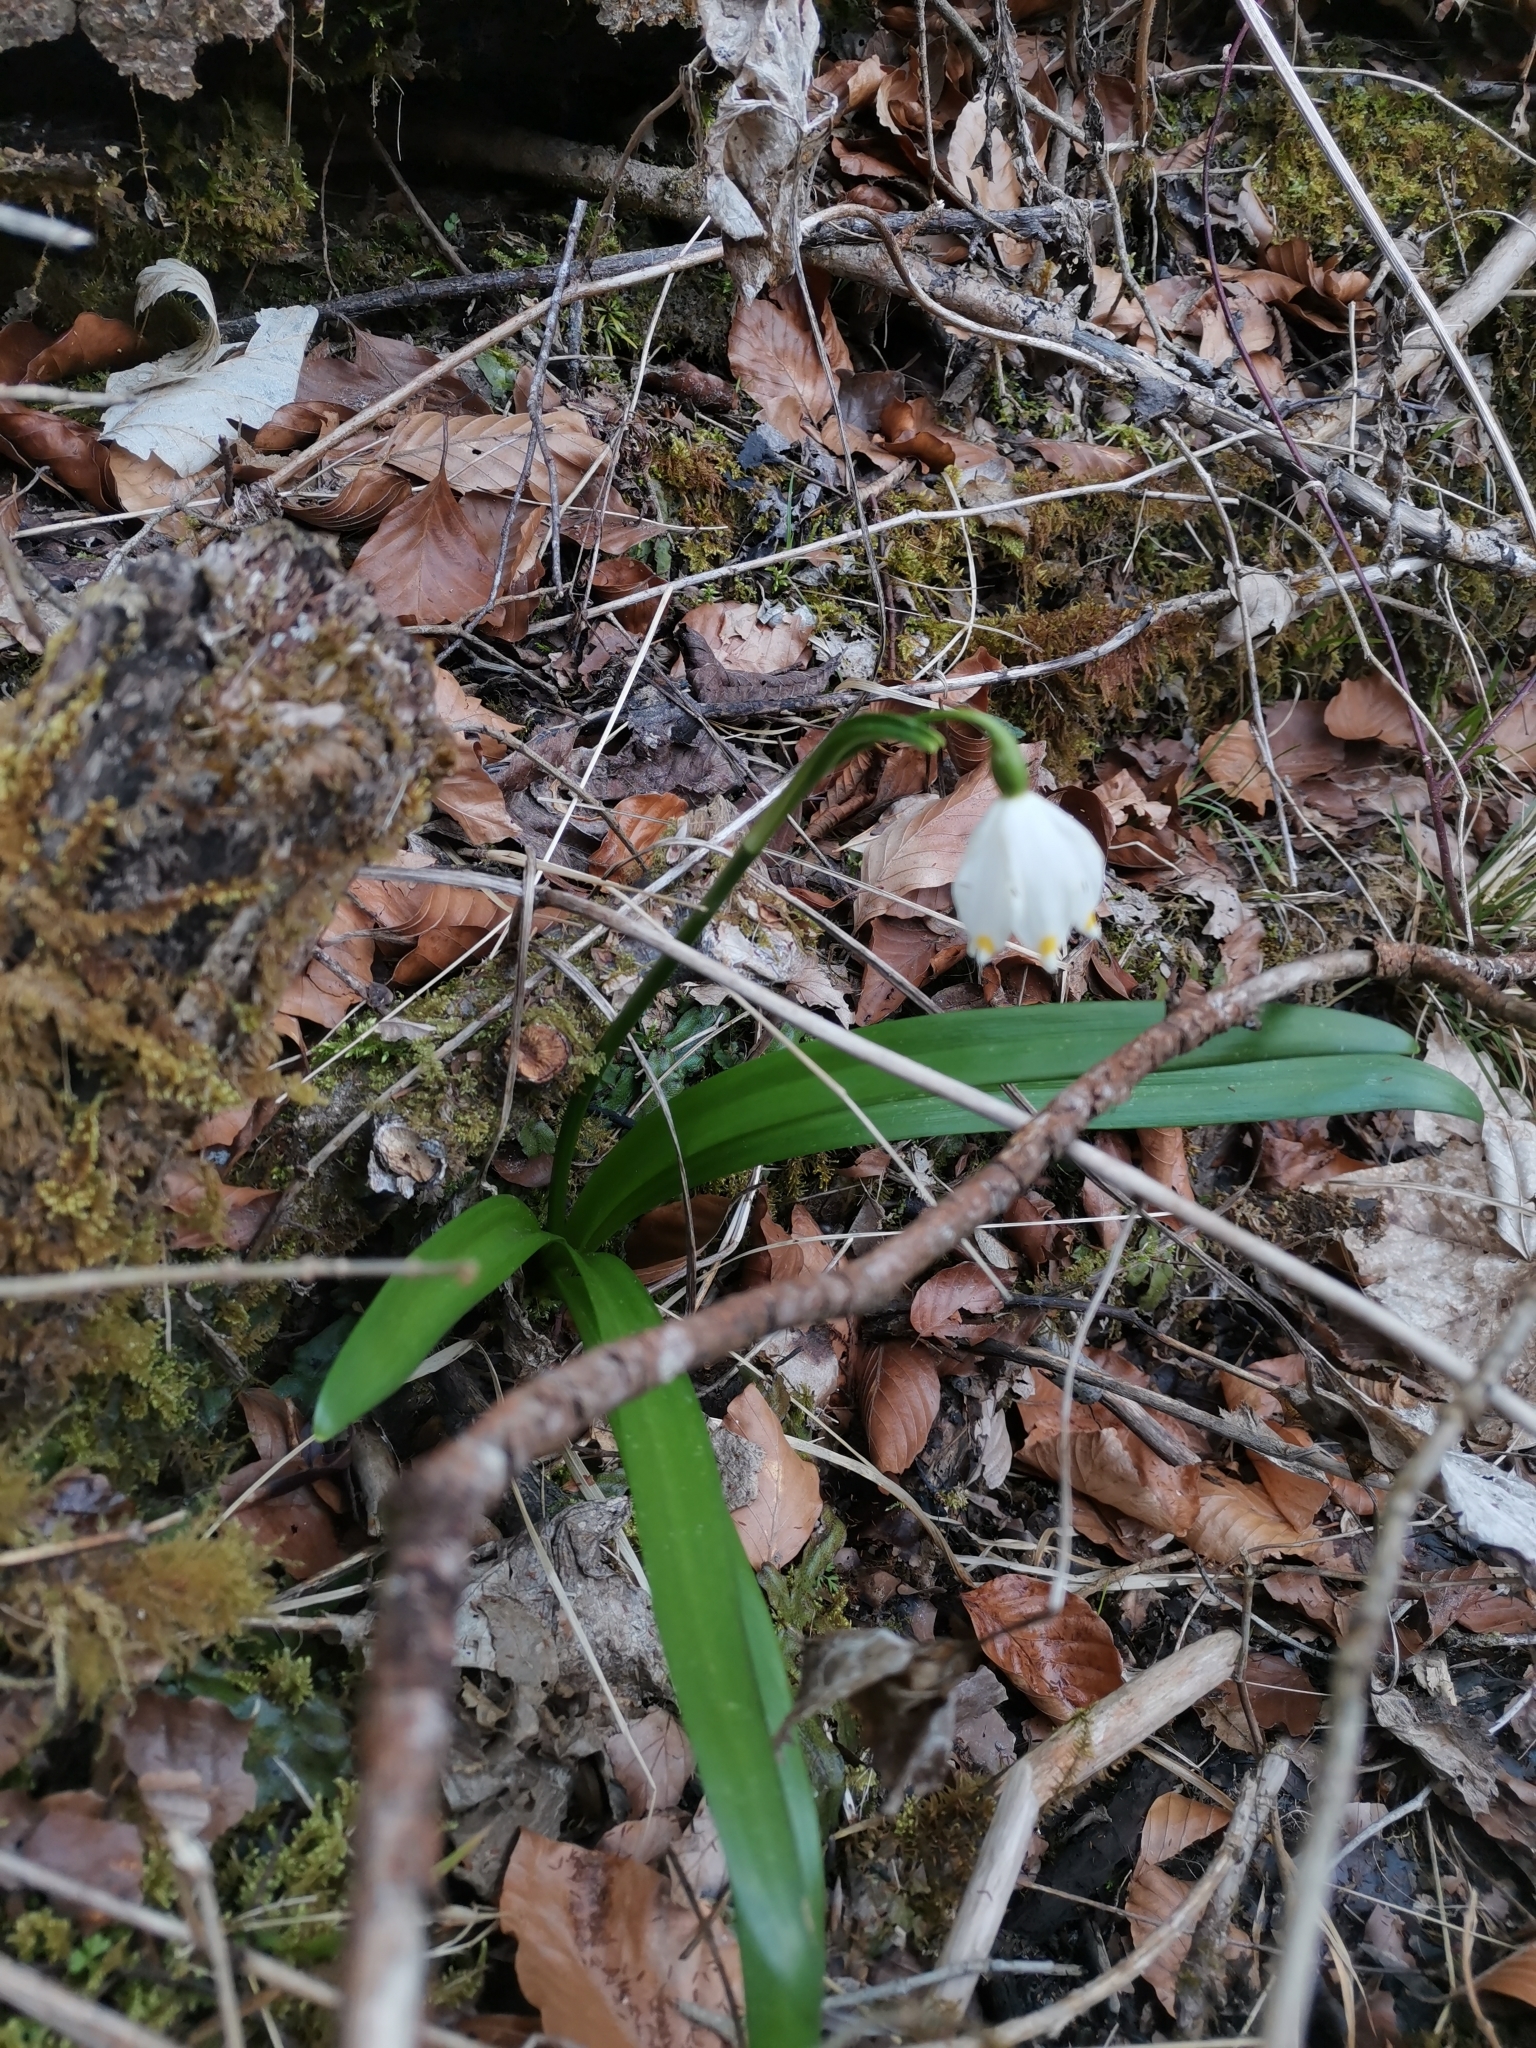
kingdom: Plantae
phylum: Tracheophyta
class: Liliopsida
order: Asparagales
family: Amaryllidaceae
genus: Leucojum
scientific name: Leucojum vernum
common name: Spring snowflake
